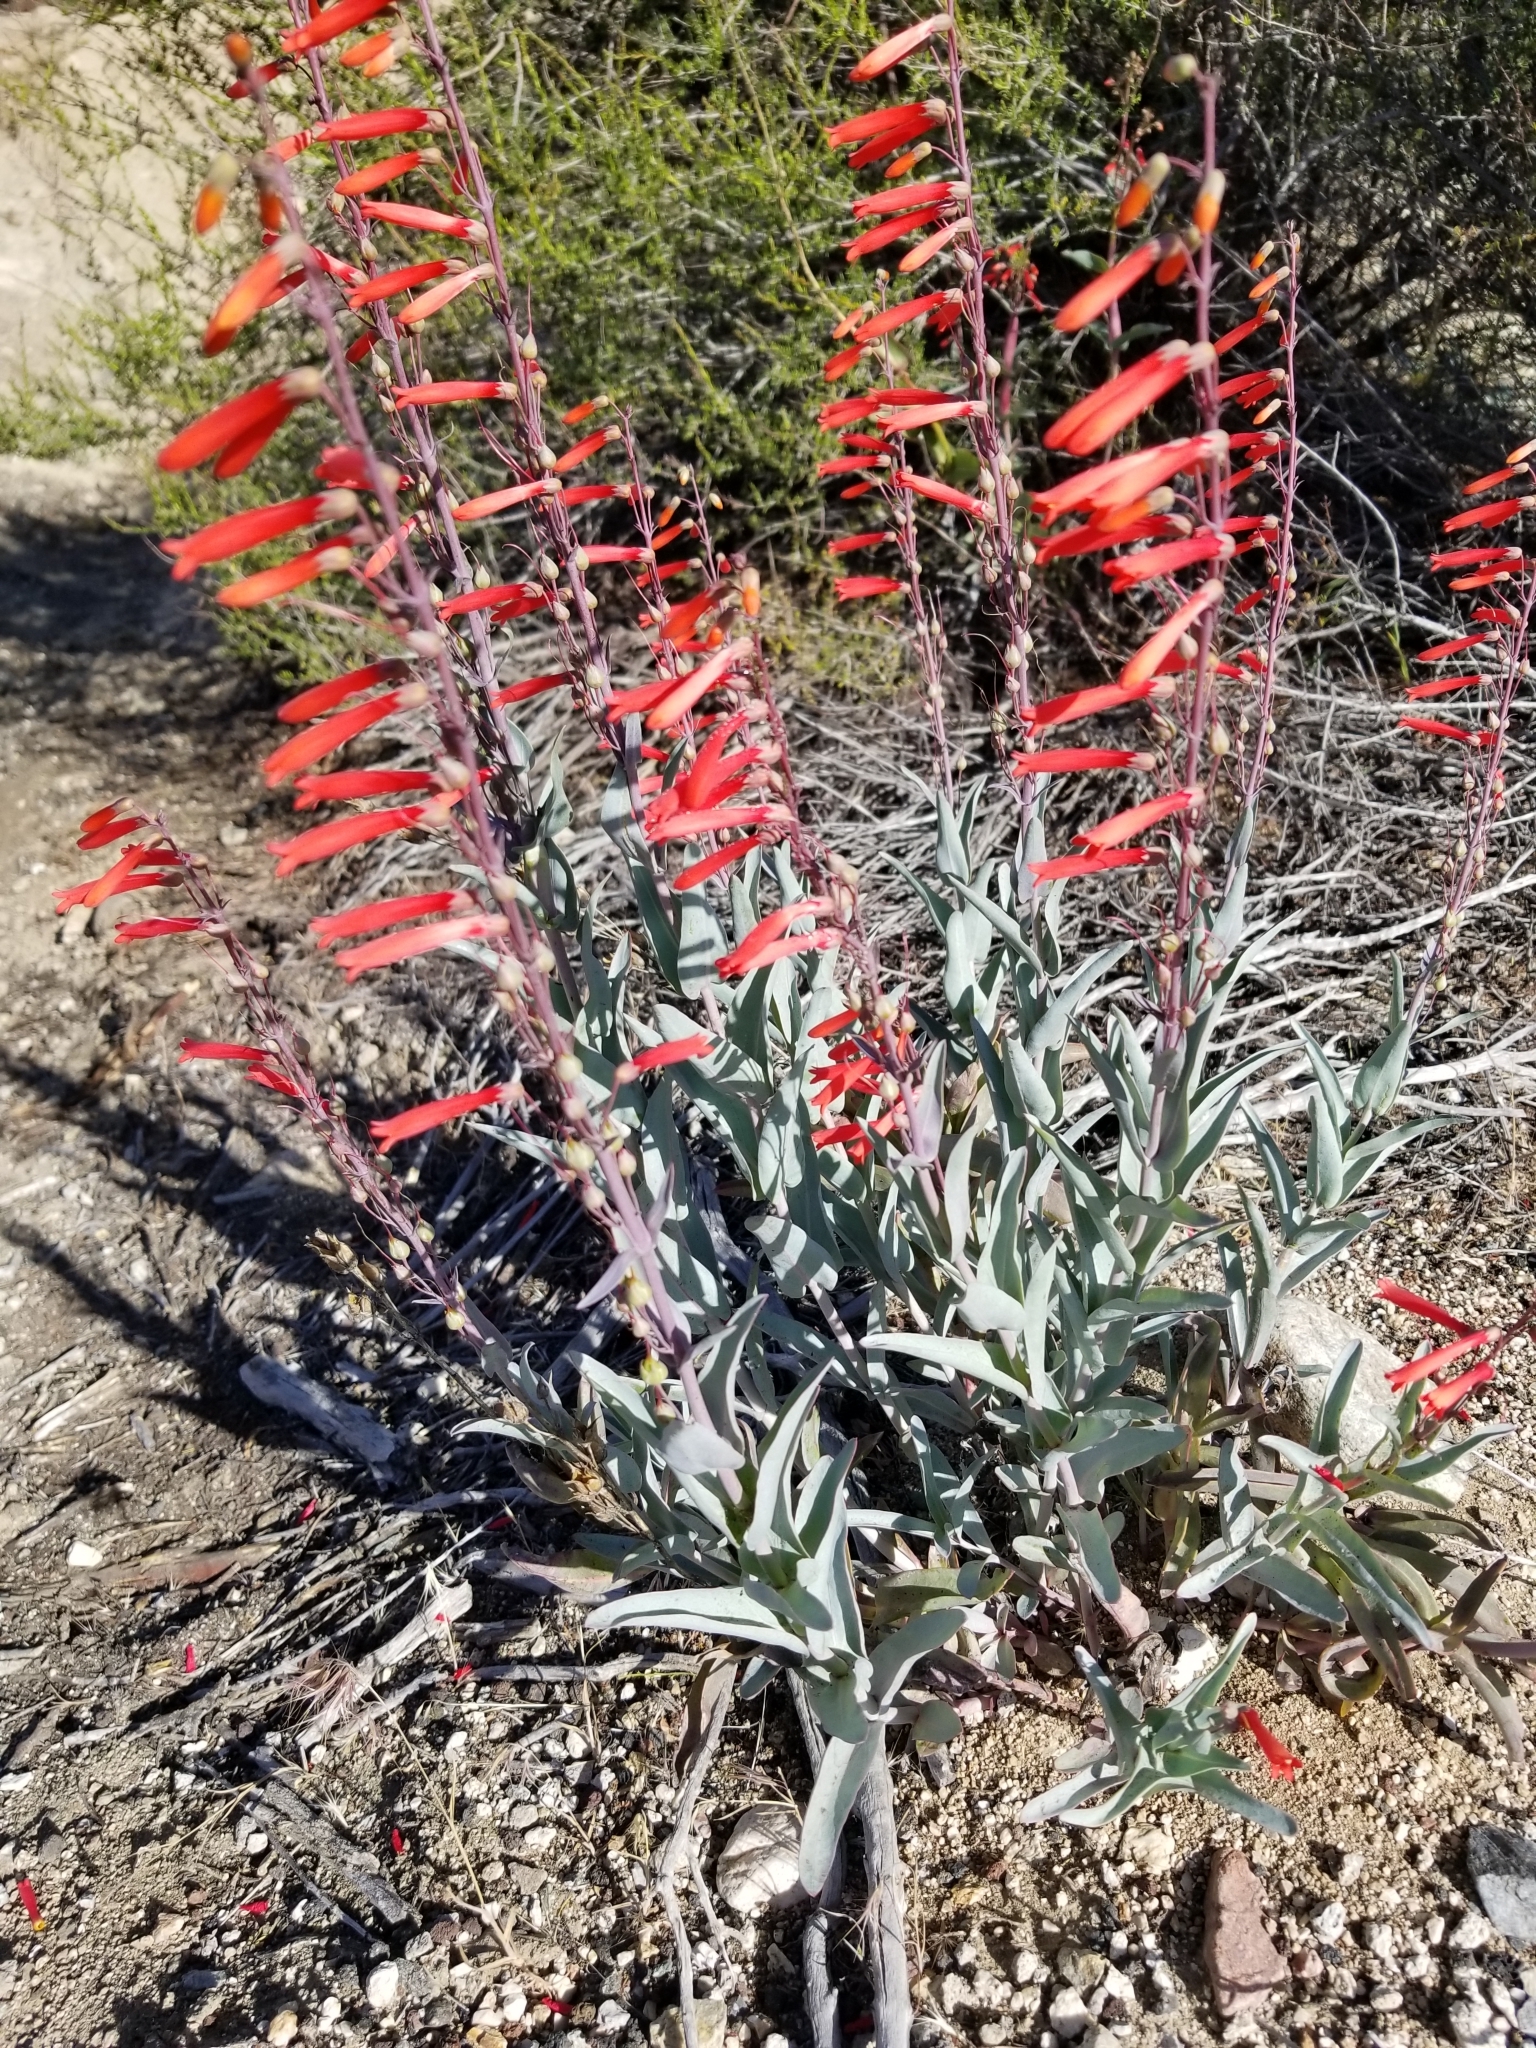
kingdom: Plantae
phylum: Tracheophyta
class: Magnoliopsida
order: Lamiales
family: Plantaginaceae
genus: Penstemon
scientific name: Penstemon centranthifolius
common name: Scarlet bugler
